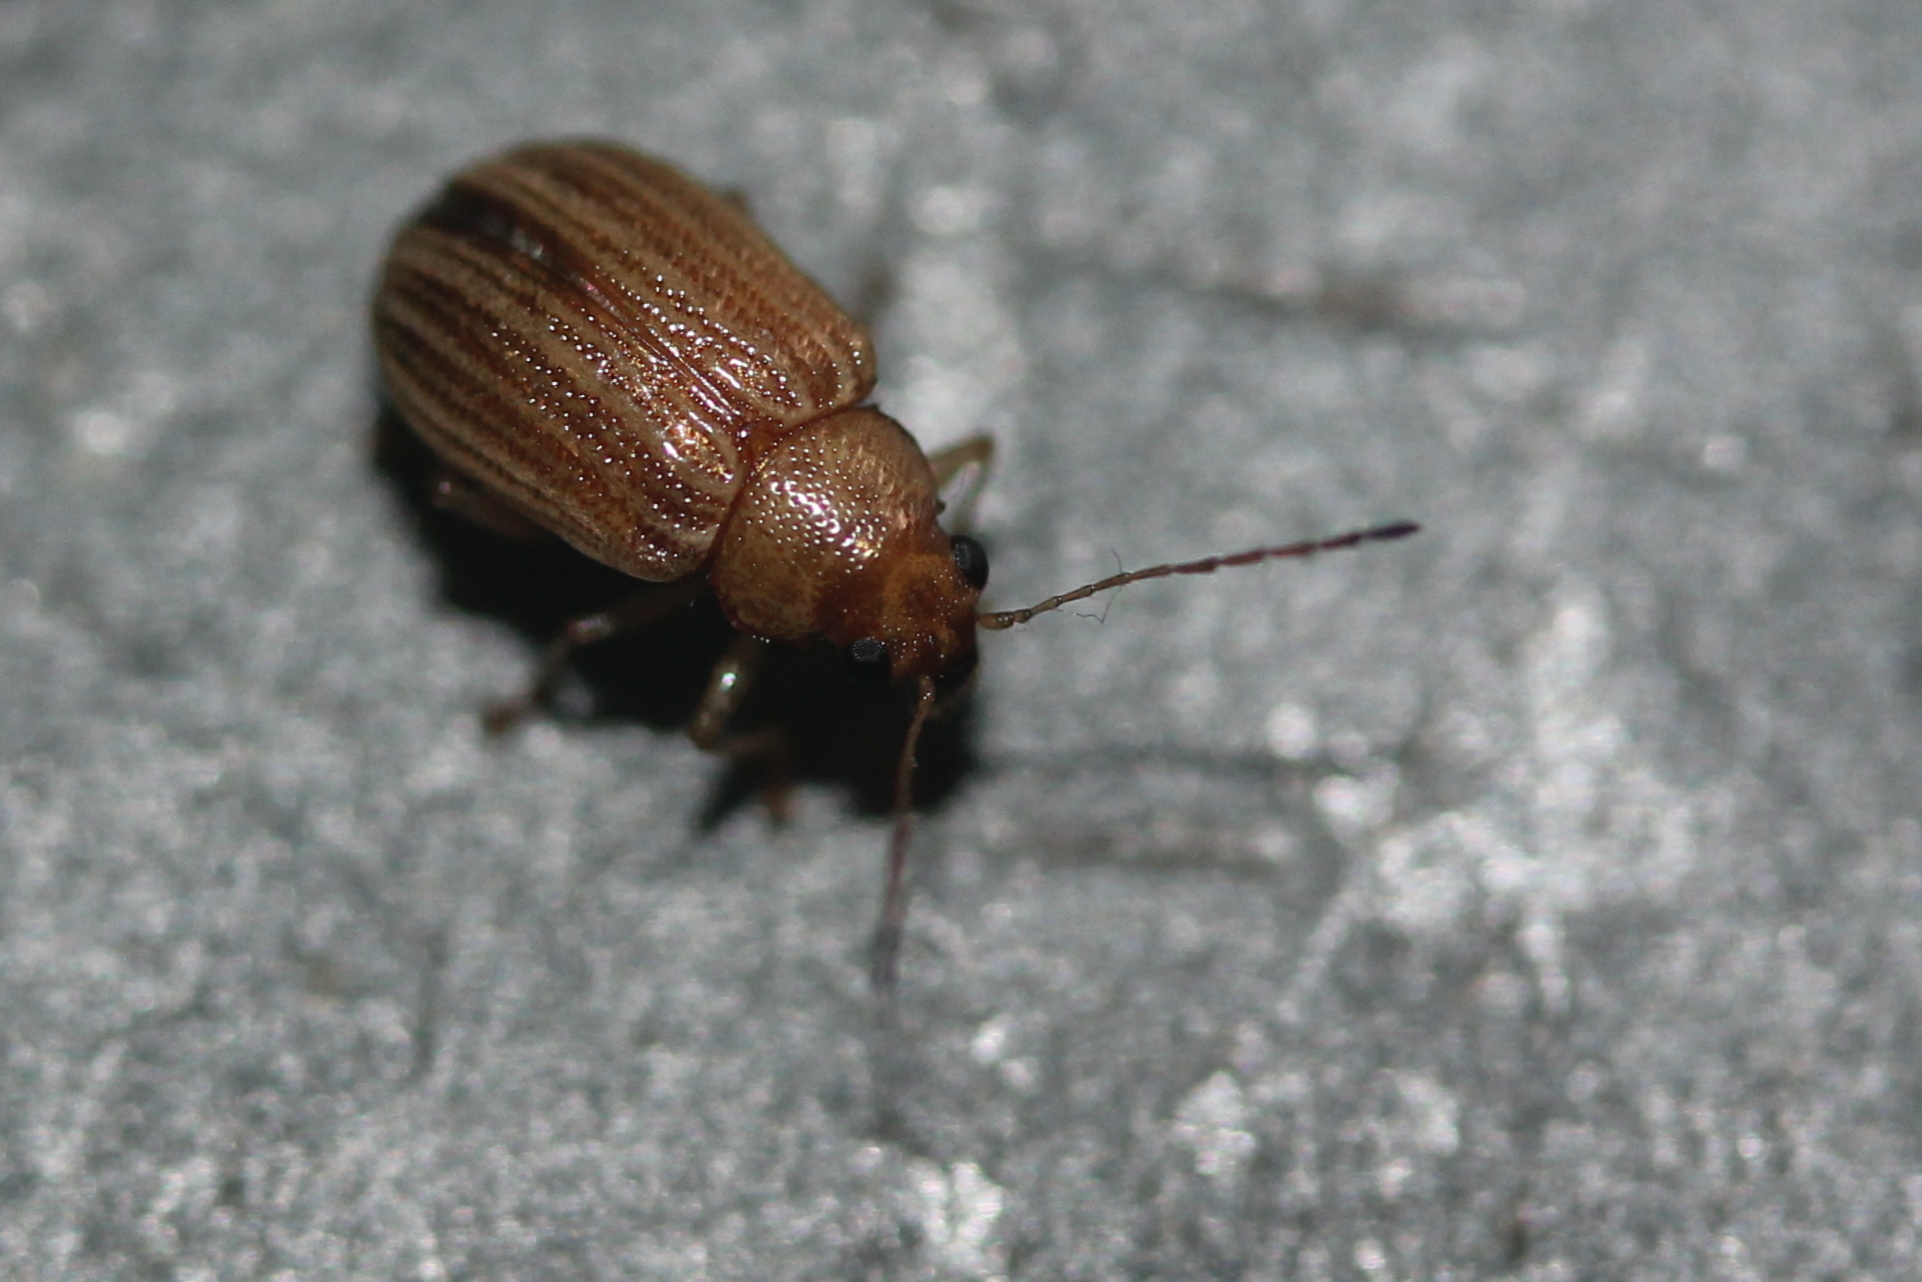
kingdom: Animalia
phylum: Arthropoda
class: Insecta
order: Coleoptera
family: Chrysomelidae
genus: Colaspis
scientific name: Colaspis brunnea
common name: Grape colaspis
